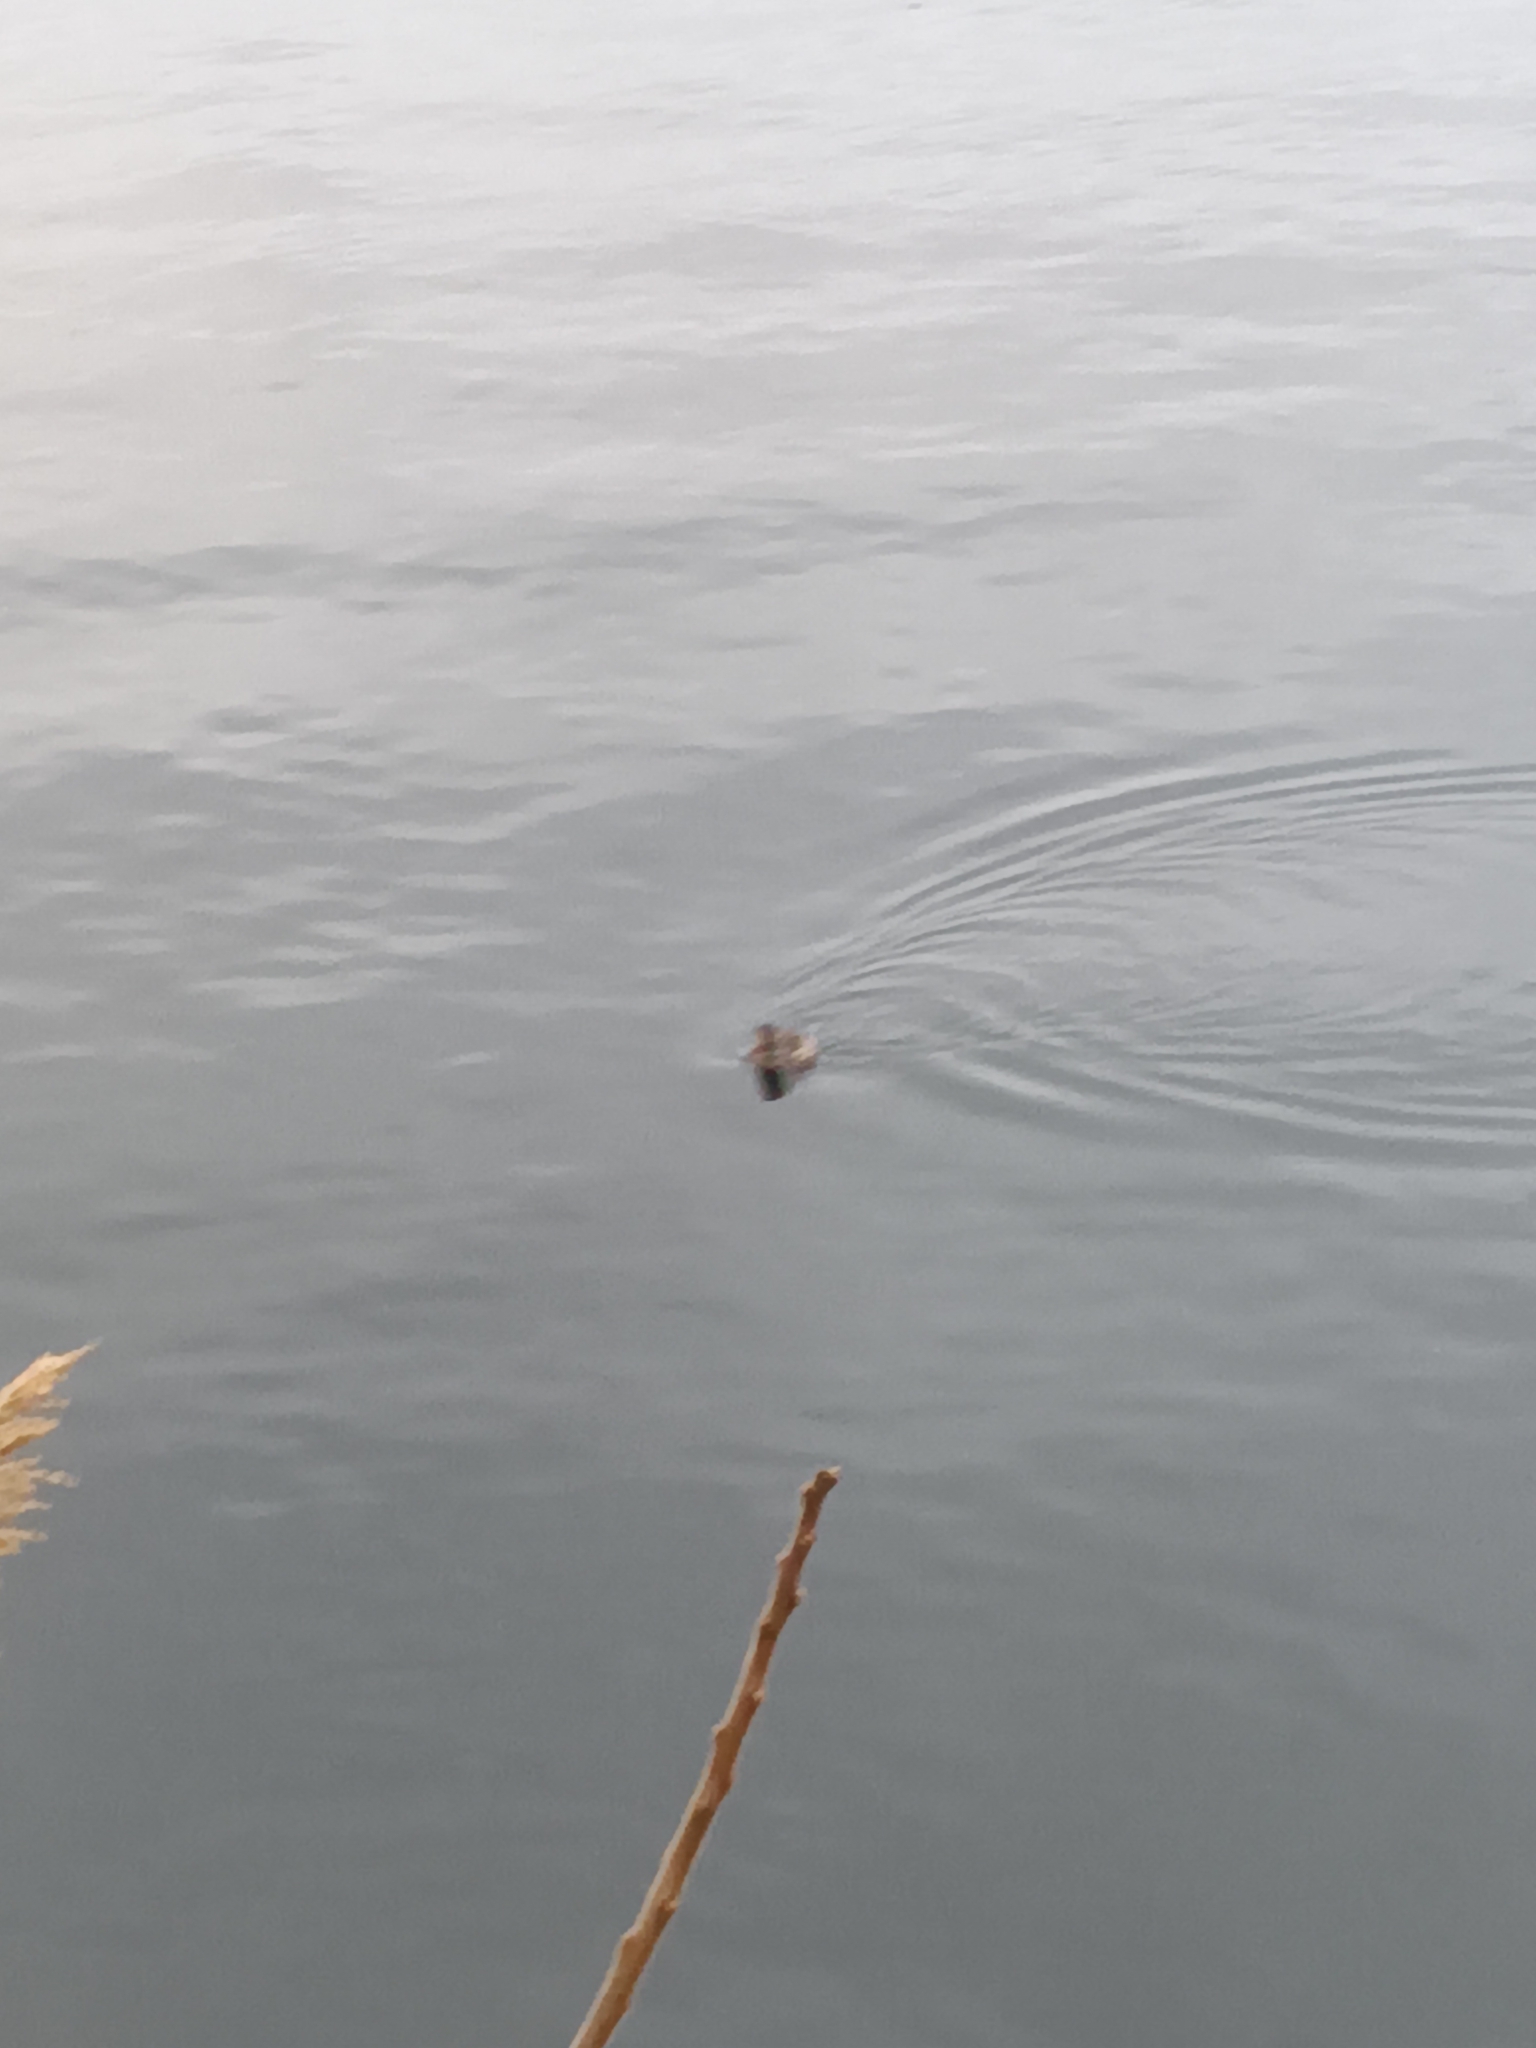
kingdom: Animalia
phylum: Chordata
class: Aves
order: Anseriformes
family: Anatidae
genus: Oxyura
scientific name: Oxyura jamaicensis
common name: Ruddy duck
